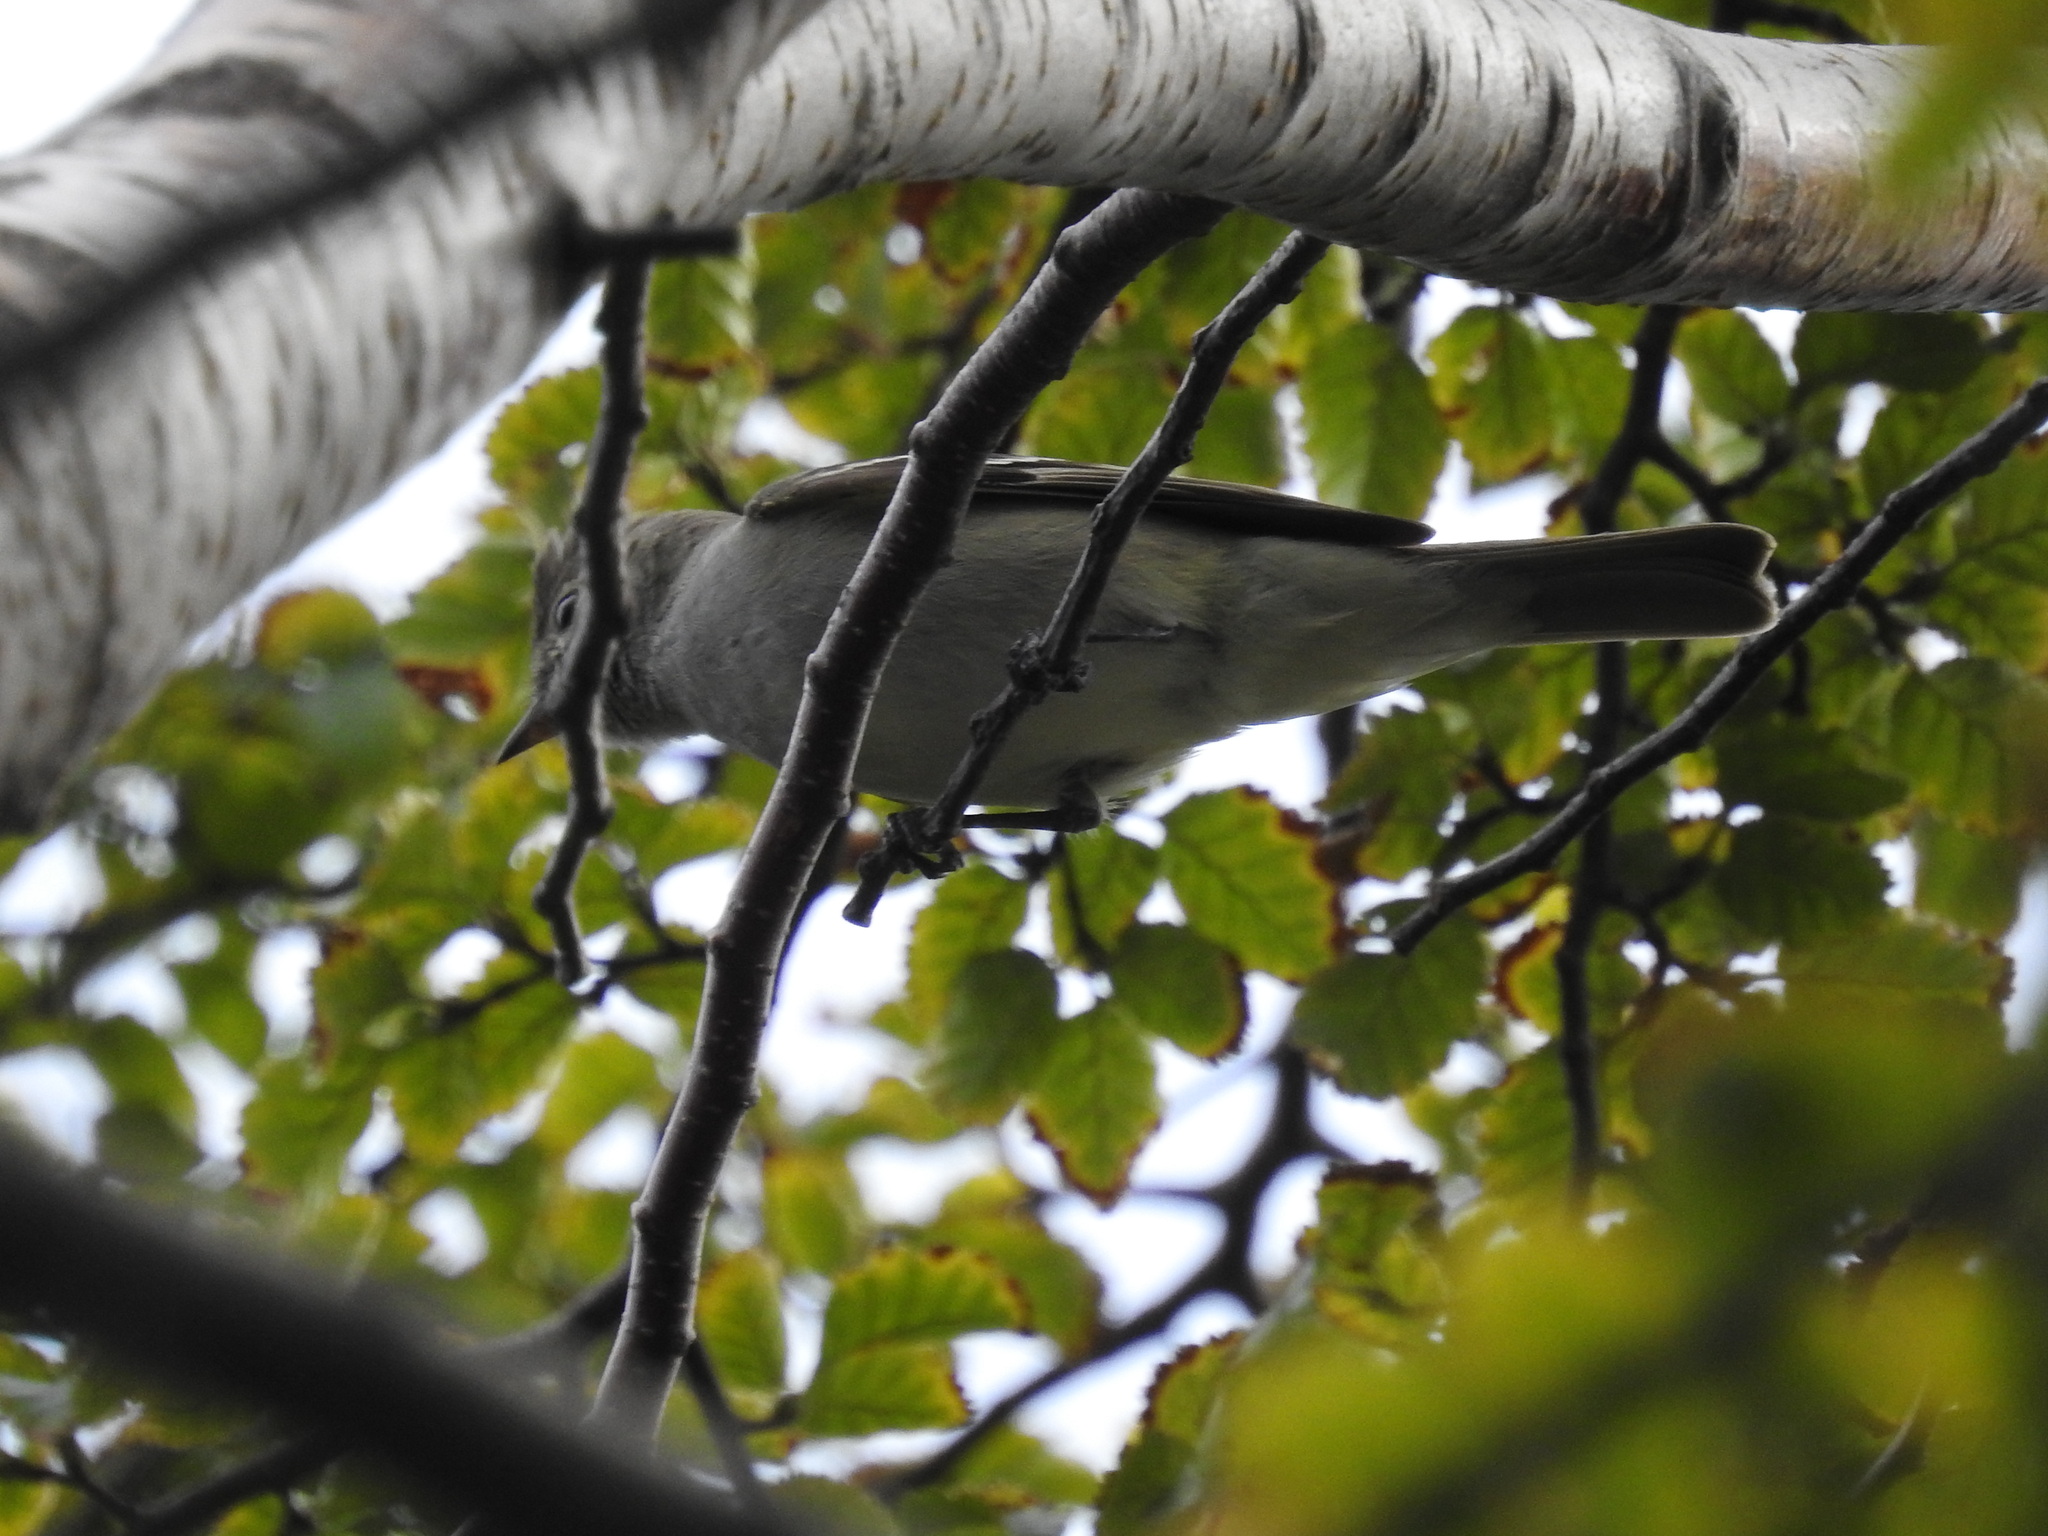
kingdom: Animalia
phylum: Chordata
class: Aves
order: Passeriformes
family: Tyrannidae
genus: Elaenia
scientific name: Elaenia albiceps
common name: White-crested elaenia
